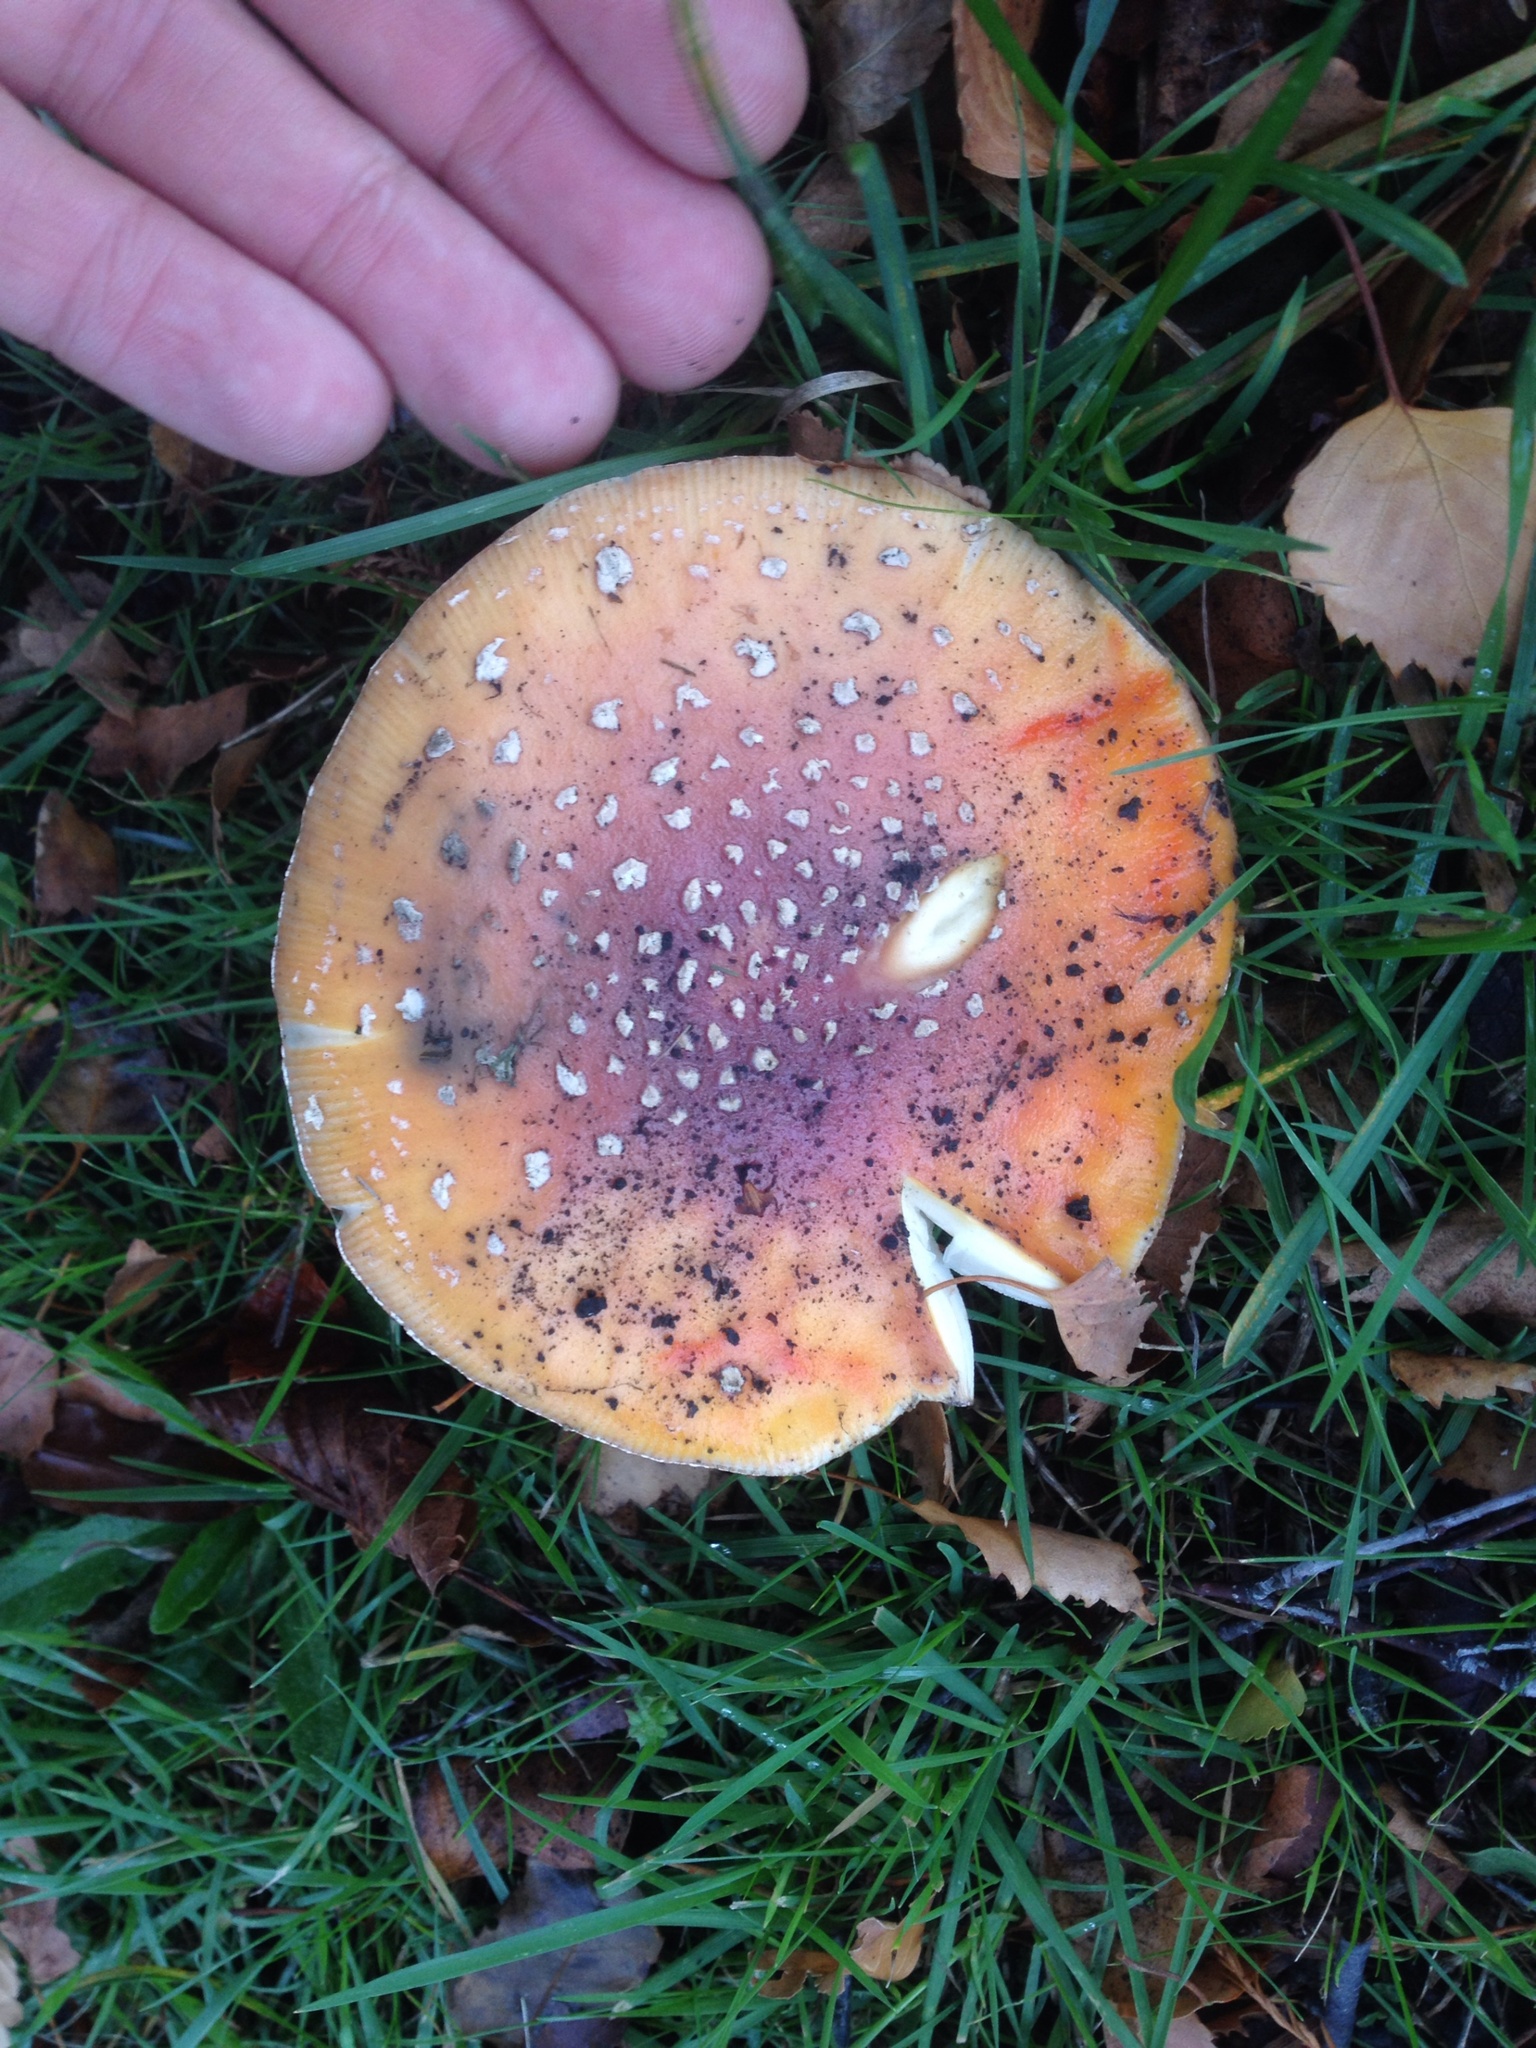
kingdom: Fungi
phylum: Basidiomycota
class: Agaricomycetes
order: Agaricales
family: Amanitaceae
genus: Amanita
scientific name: Amanita muscaria
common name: Fly agaric
